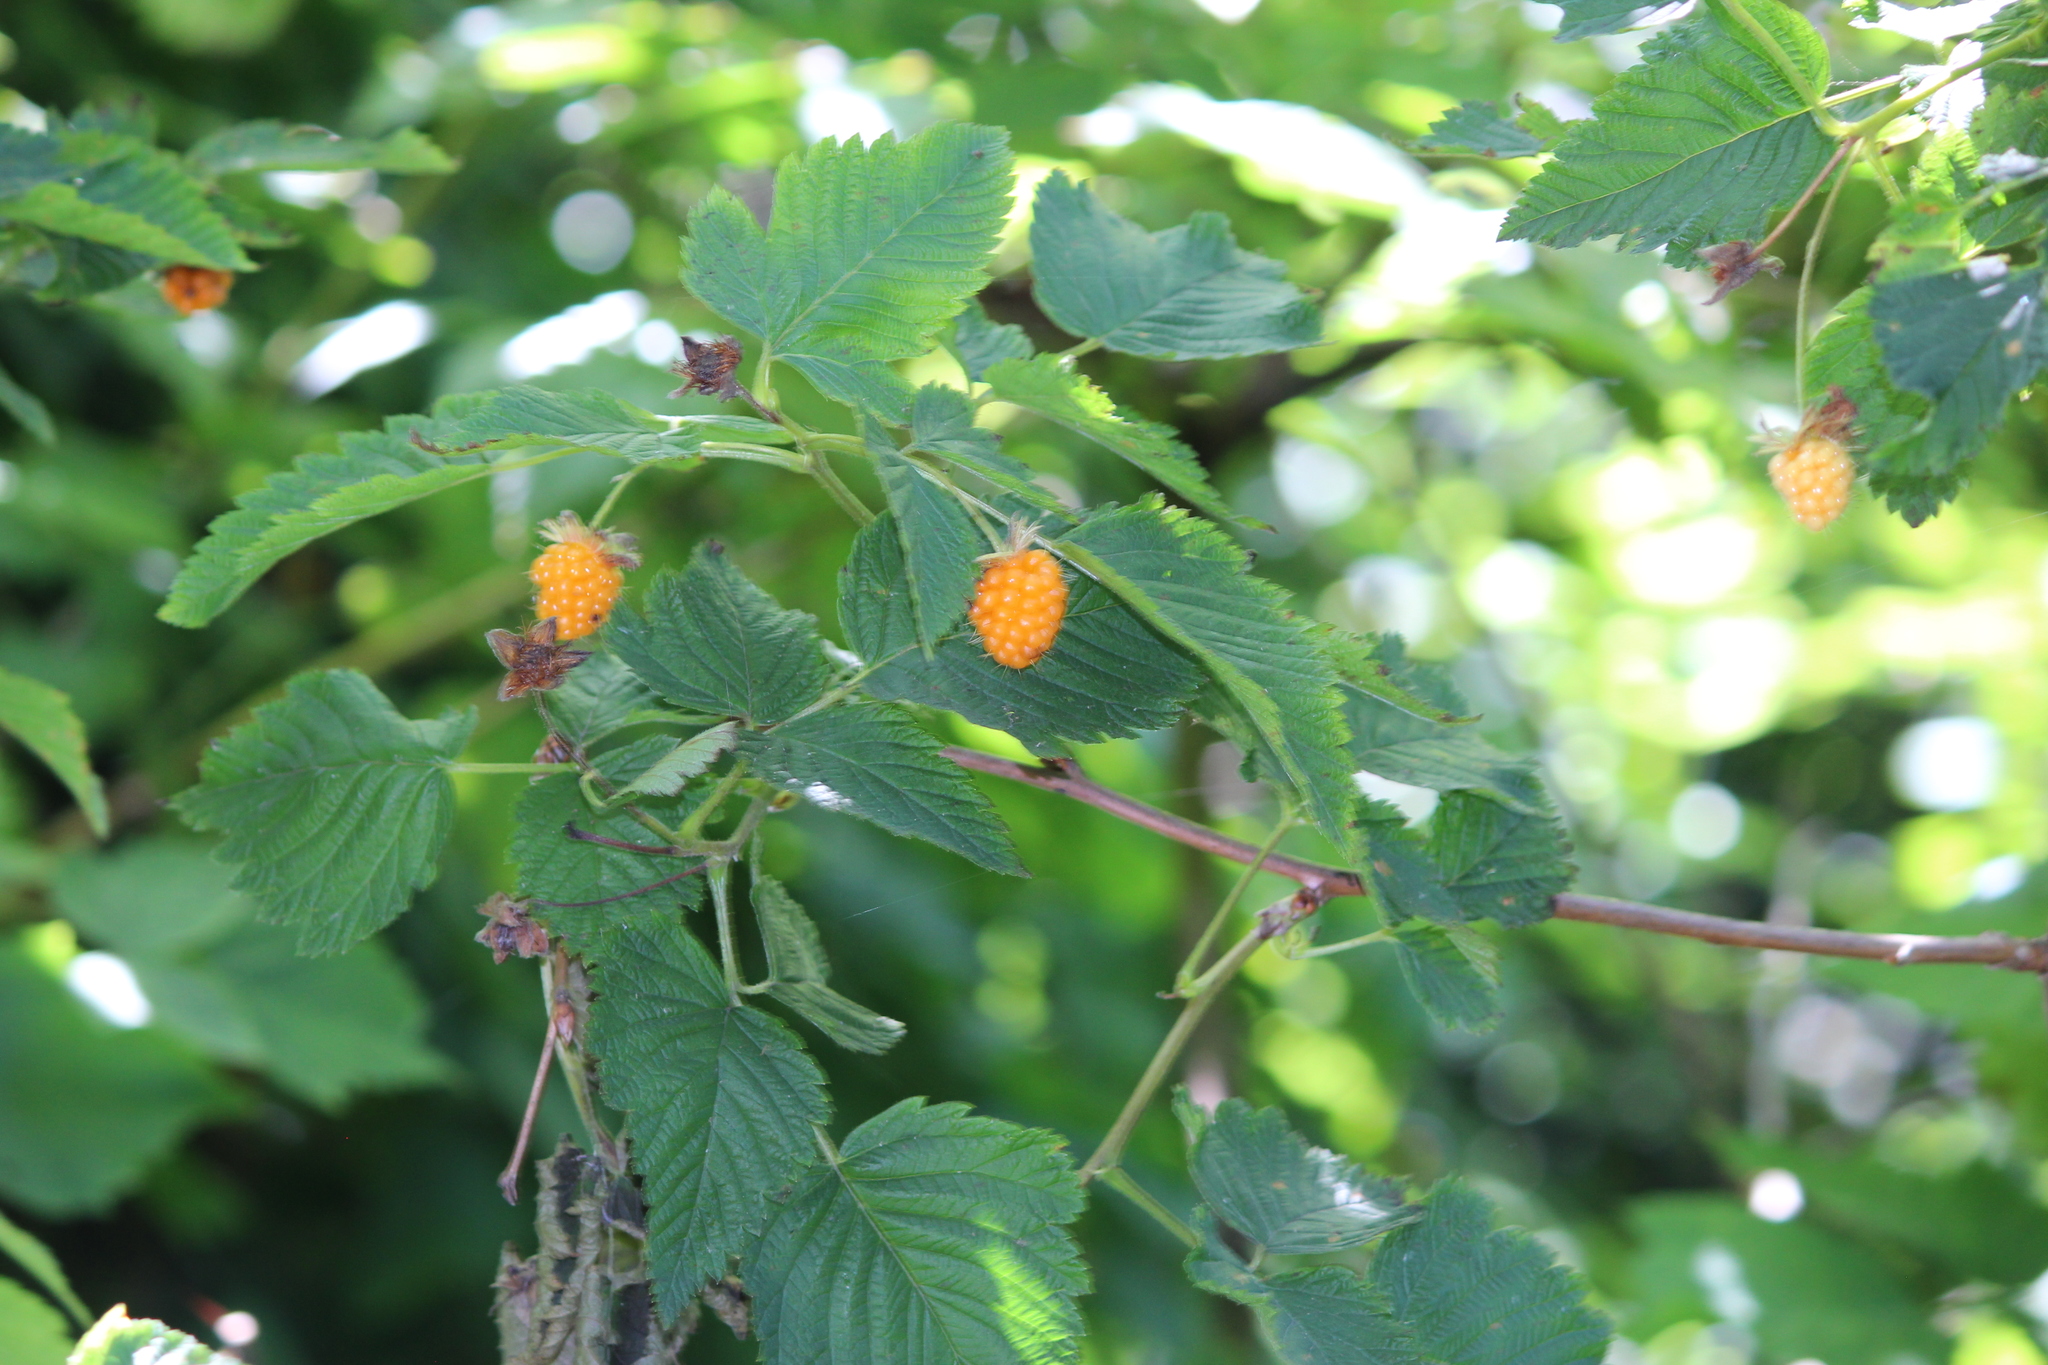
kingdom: Plantae
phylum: Tracheophyta
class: Magnoliopsida
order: Rosales
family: Rosaceae
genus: Rubus
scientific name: Rubus spectabilis
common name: Salmonberry
